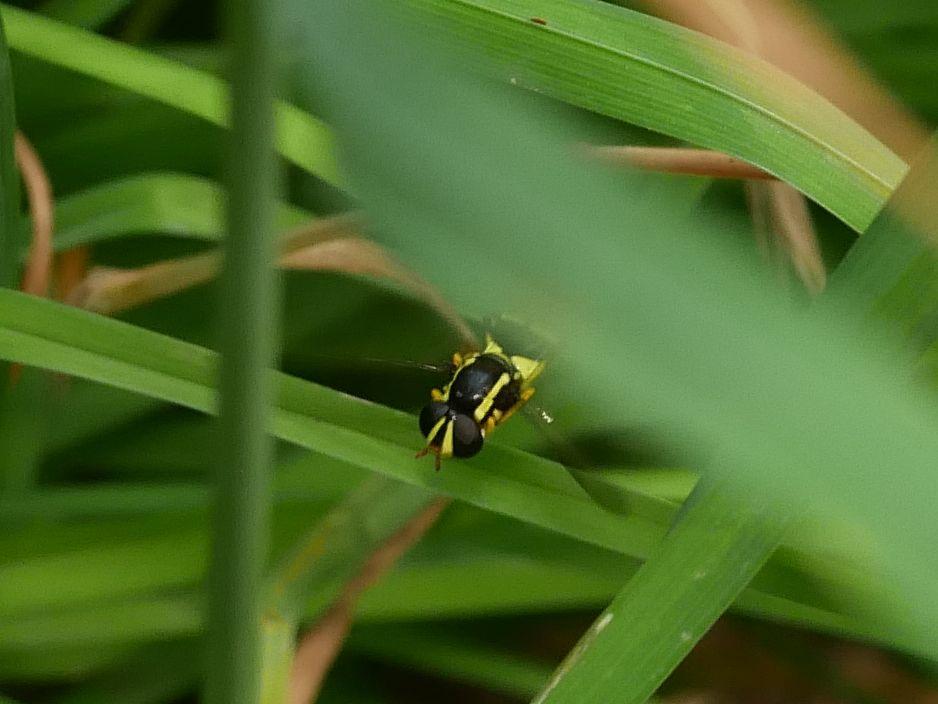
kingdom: Animalia
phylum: Arthropoda
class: Insecta
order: Diptera
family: Syrphidae
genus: Philhelius
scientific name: Philhelius pedissequum
